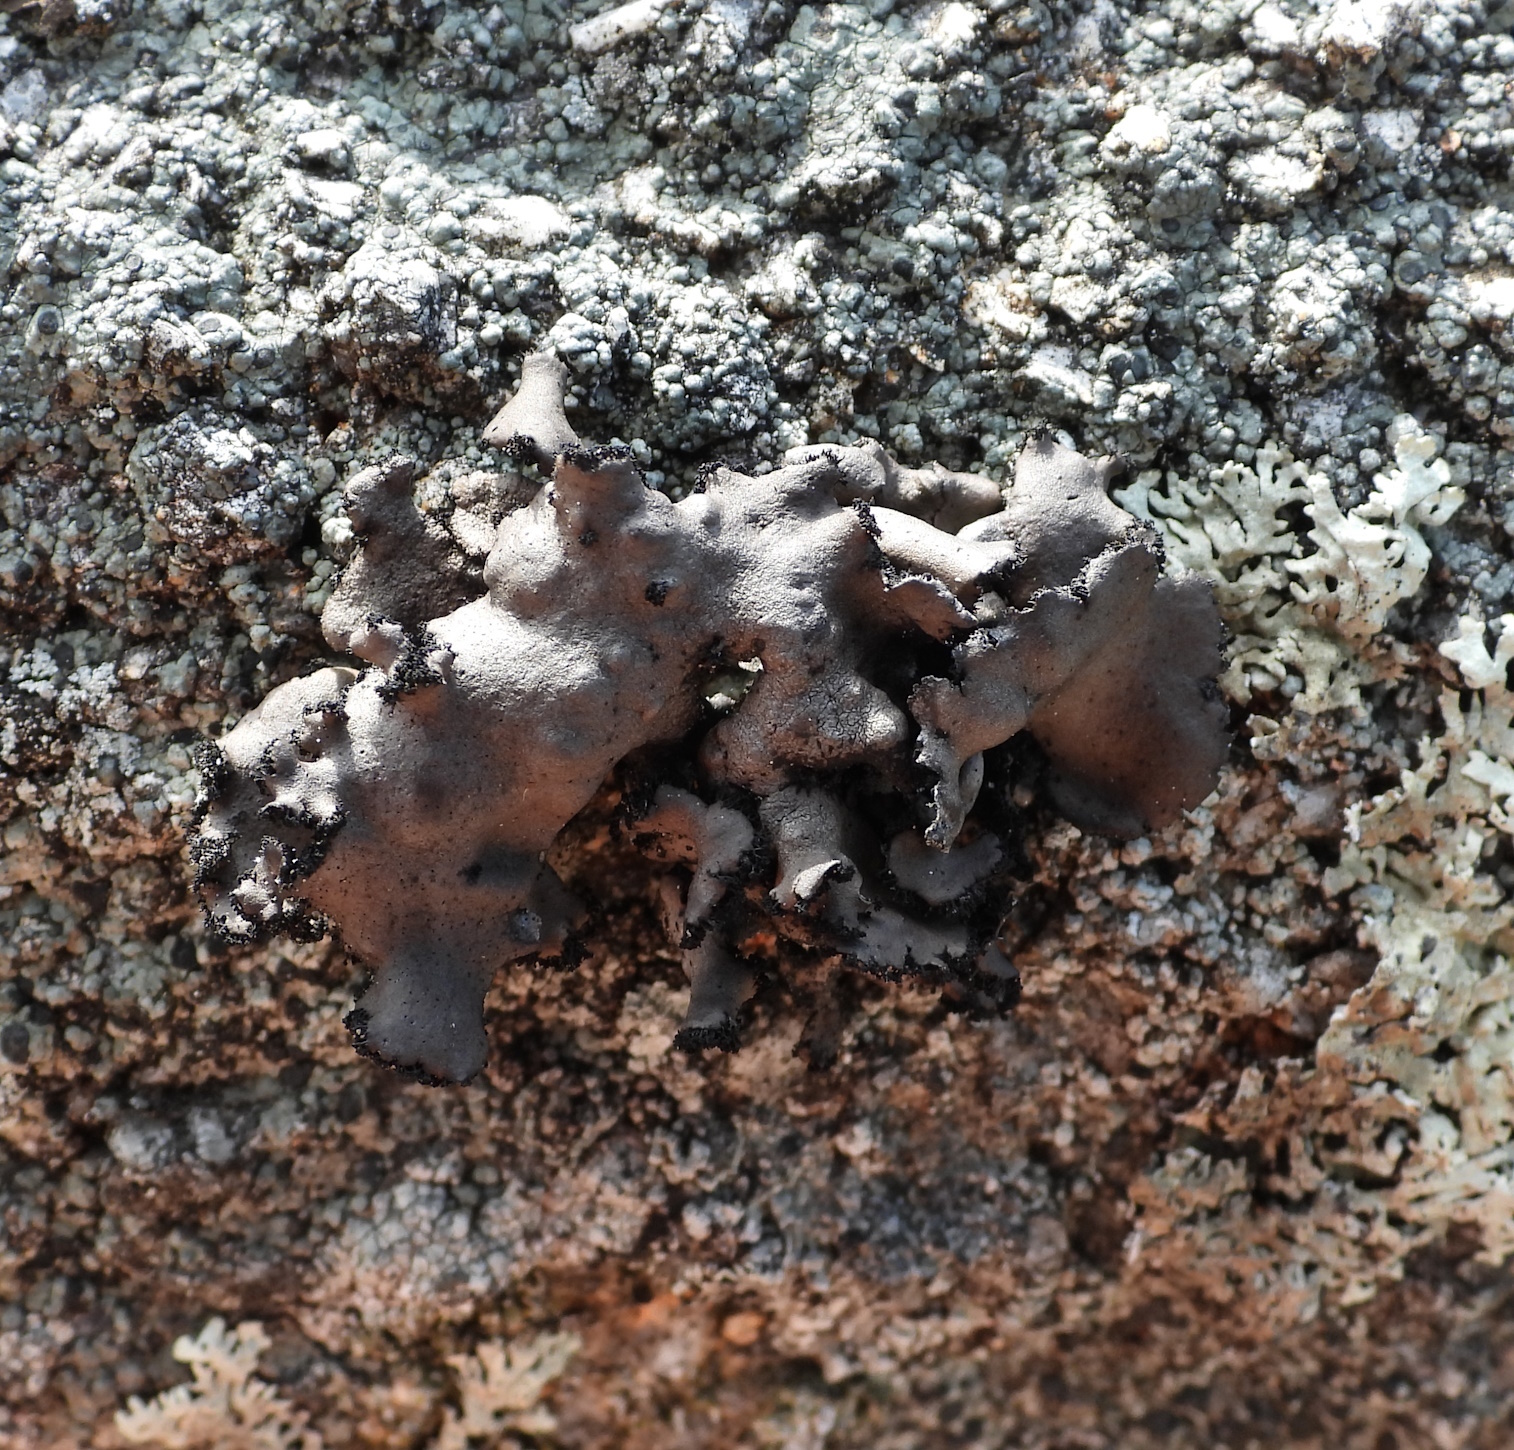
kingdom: Fungi
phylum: Ascomycota
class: Lecanoromycetes
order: Umbilicariales
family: Umbilicariaceae
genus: Umbilicaria
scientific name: Umbilicaria polyrrhiza
